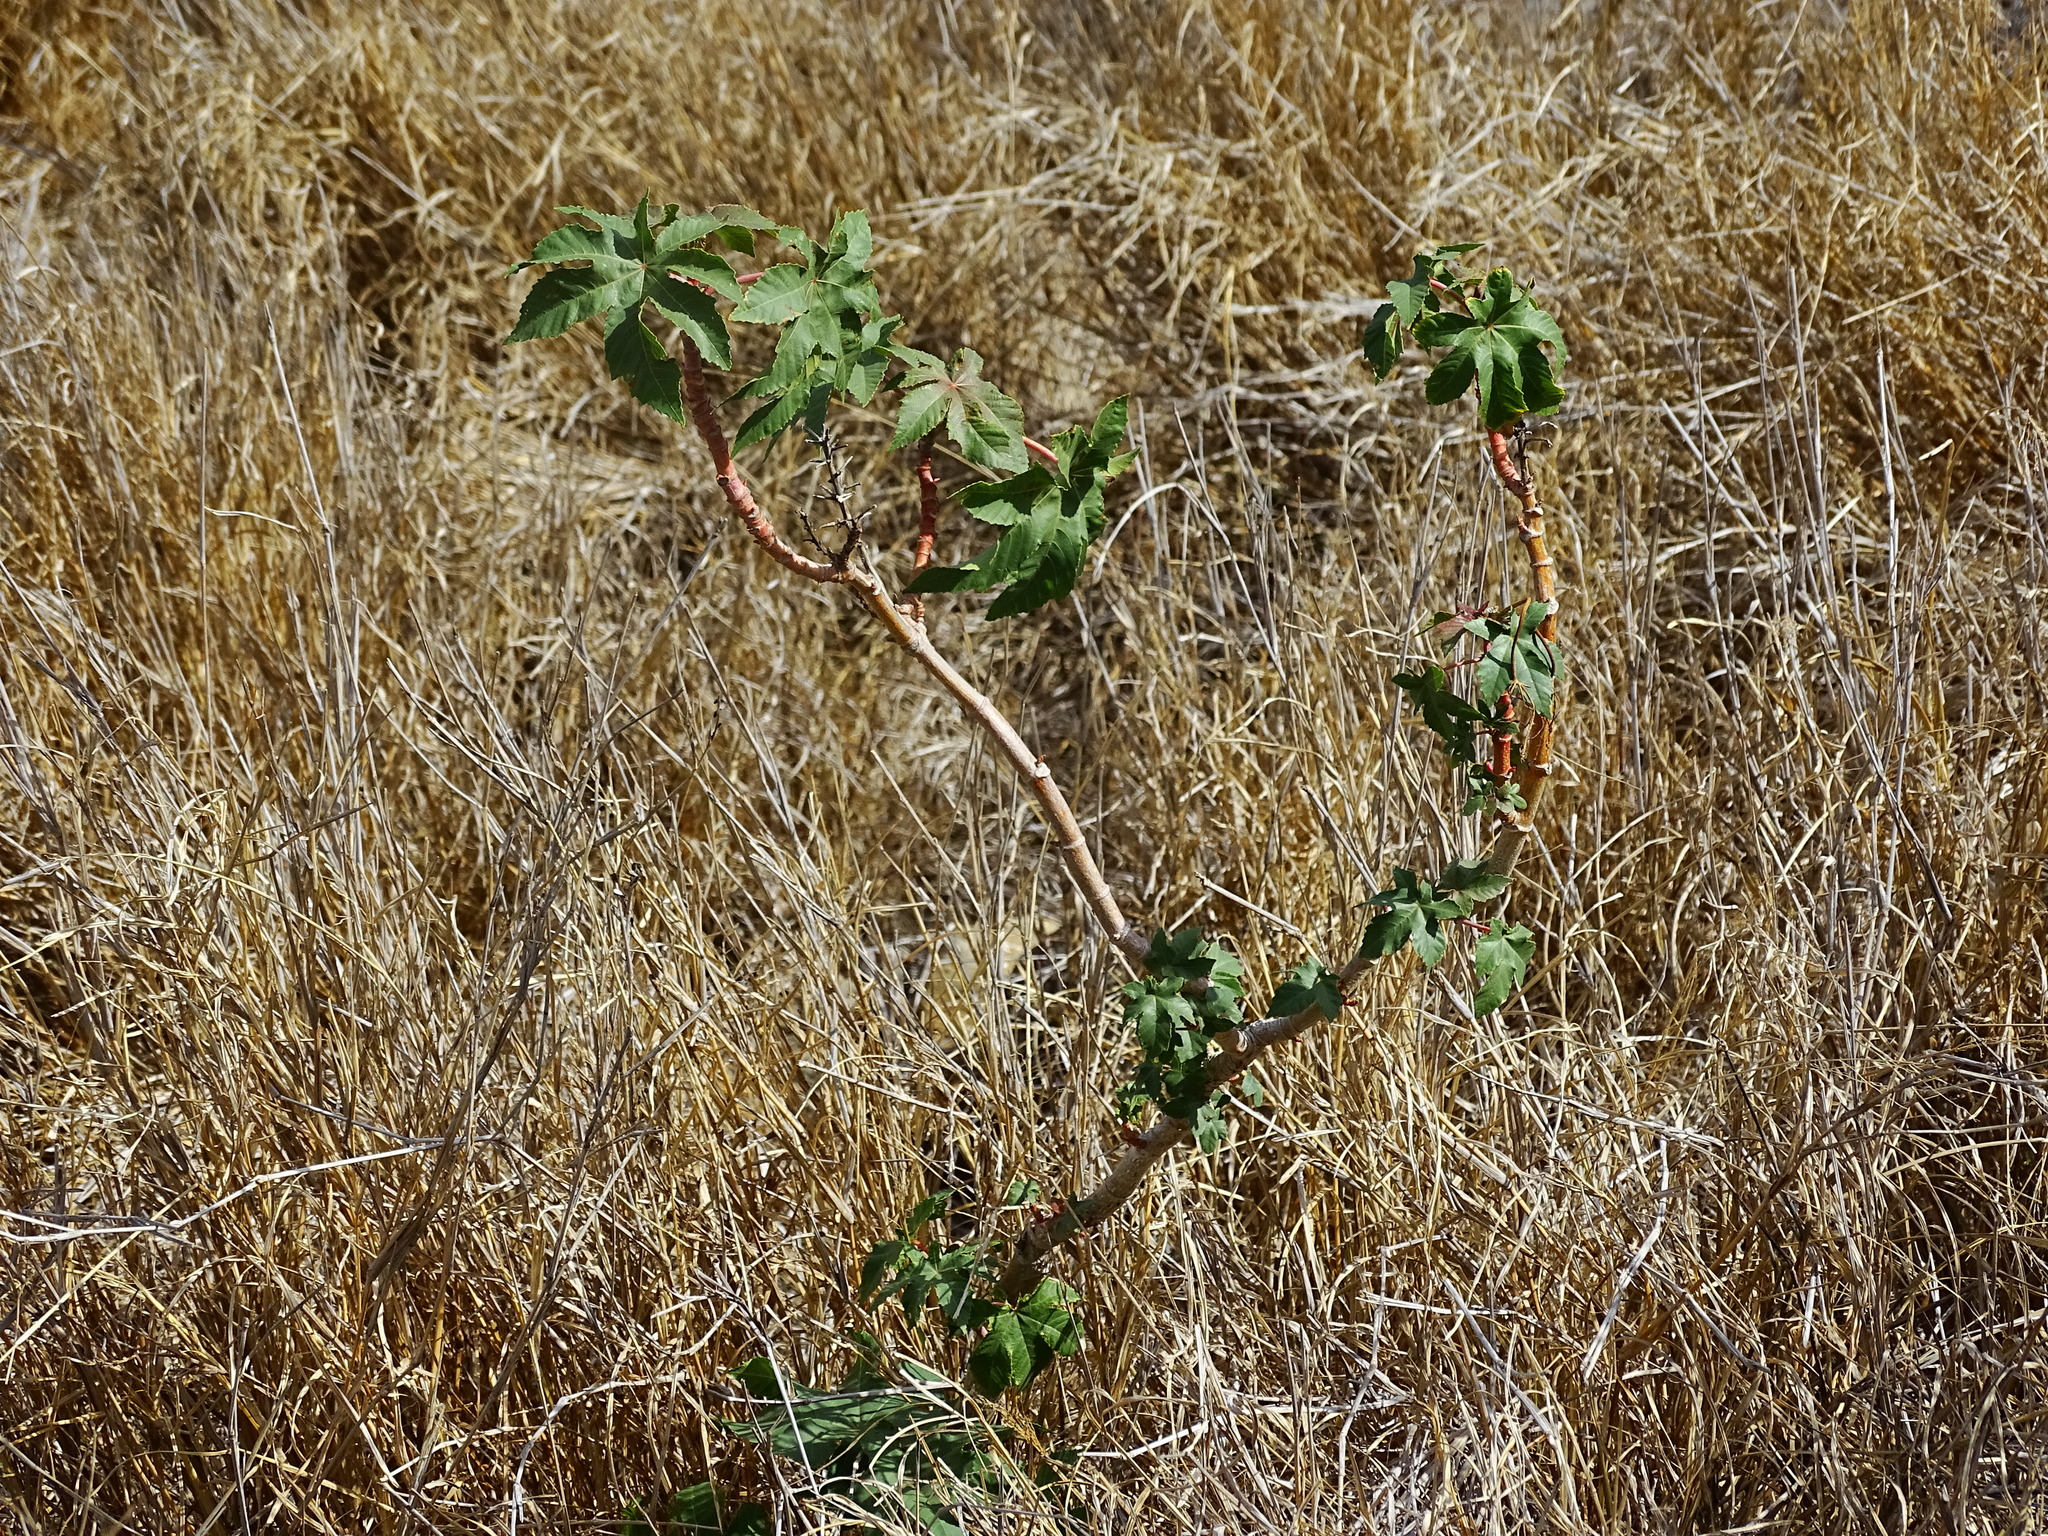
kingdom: Plantae
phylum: Tracheophyta
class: Magnoliopsida
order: Malpighiales
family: Euphorbiaceae
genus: Ricinus
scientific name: Ricinus communis
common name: Castor-oil-plant
